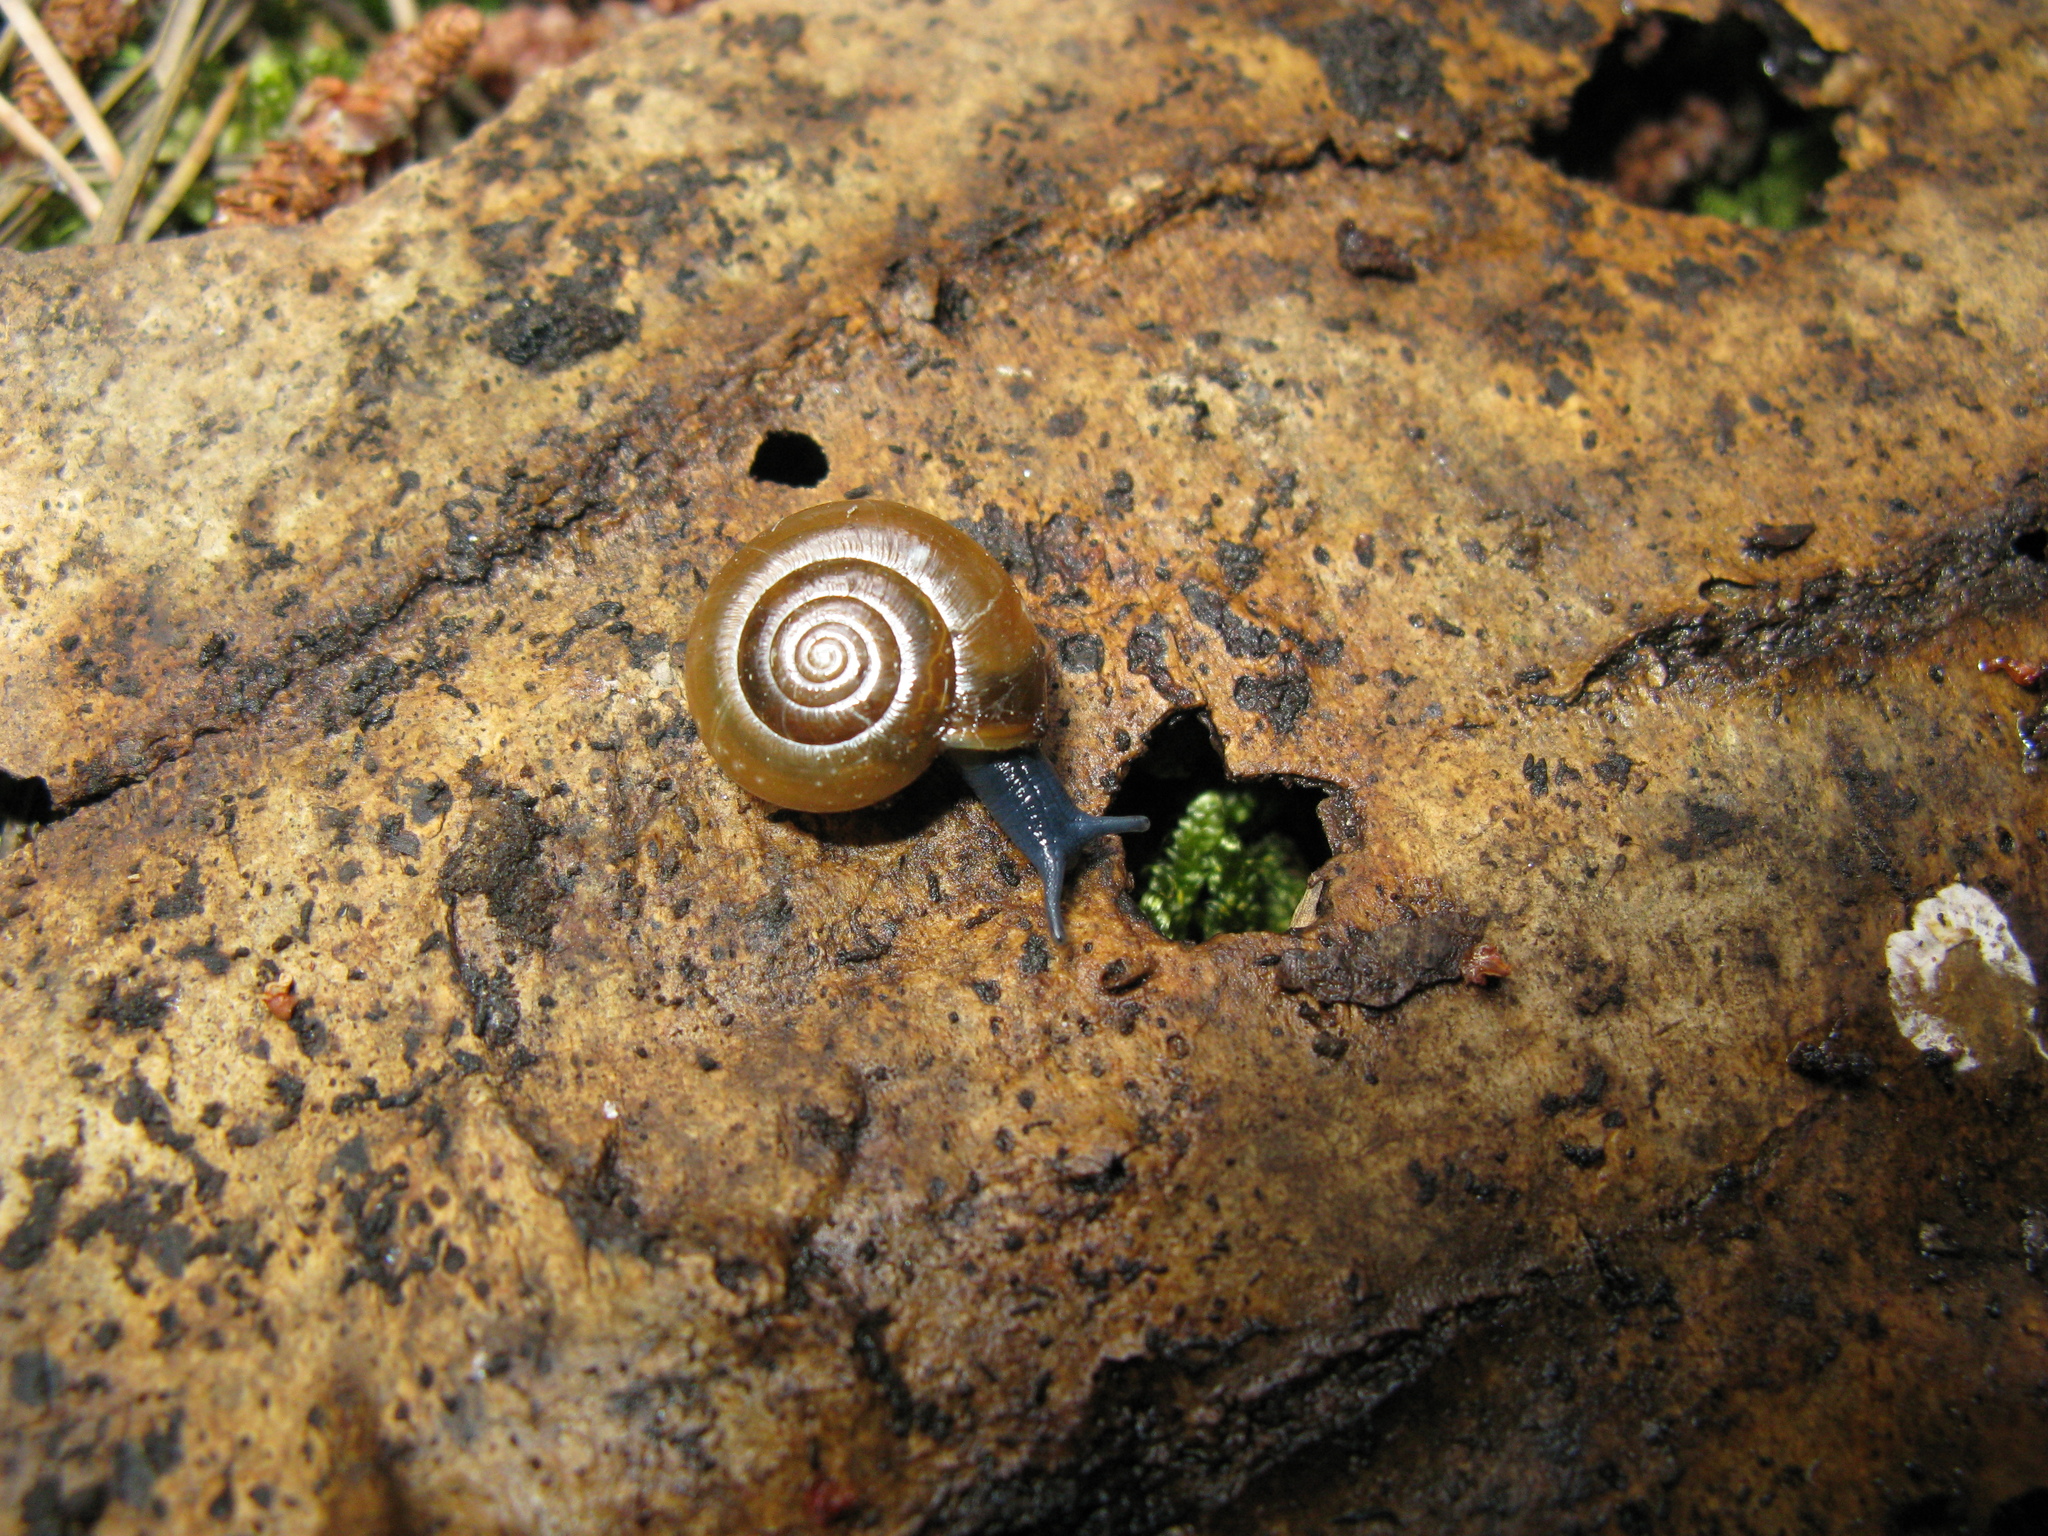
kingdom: Animalia
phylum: Mollusca
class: Gastropoda
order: Stylommatophora
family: Oxychilidae
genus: Oxychilus
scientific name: Oxychilus deilus
